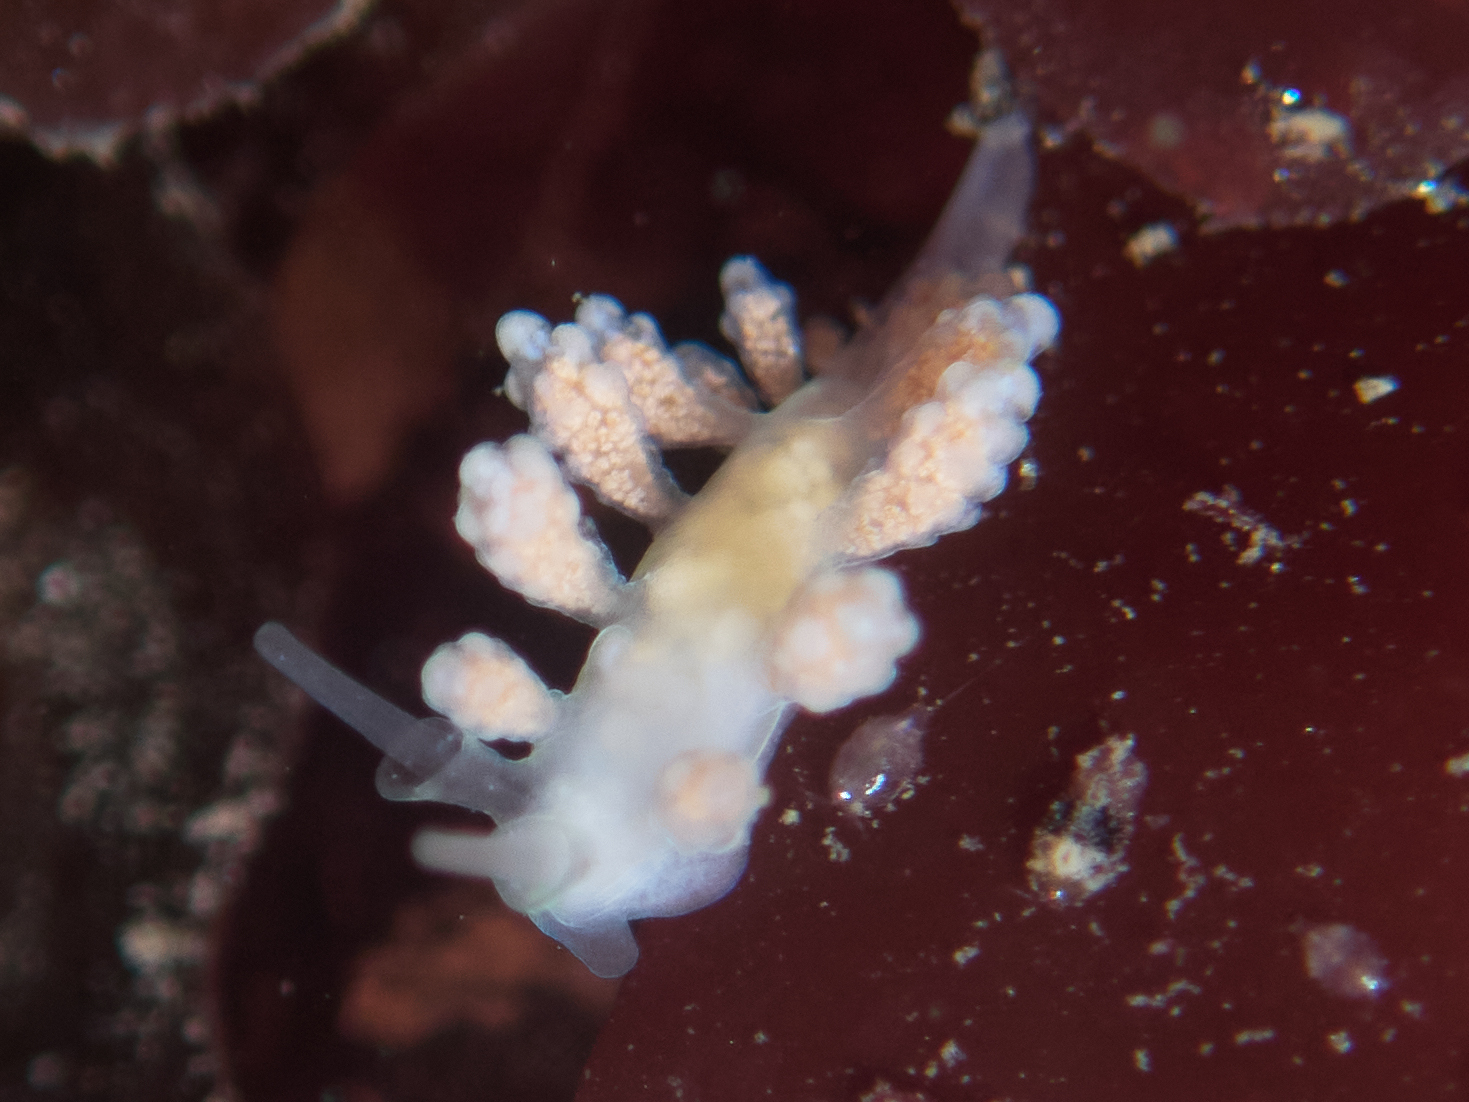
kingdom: Animalia
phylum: Mollusca
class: Gastropoda
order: Nudibranchia
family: Dotidae
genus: Doto
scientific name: Doto amyra
